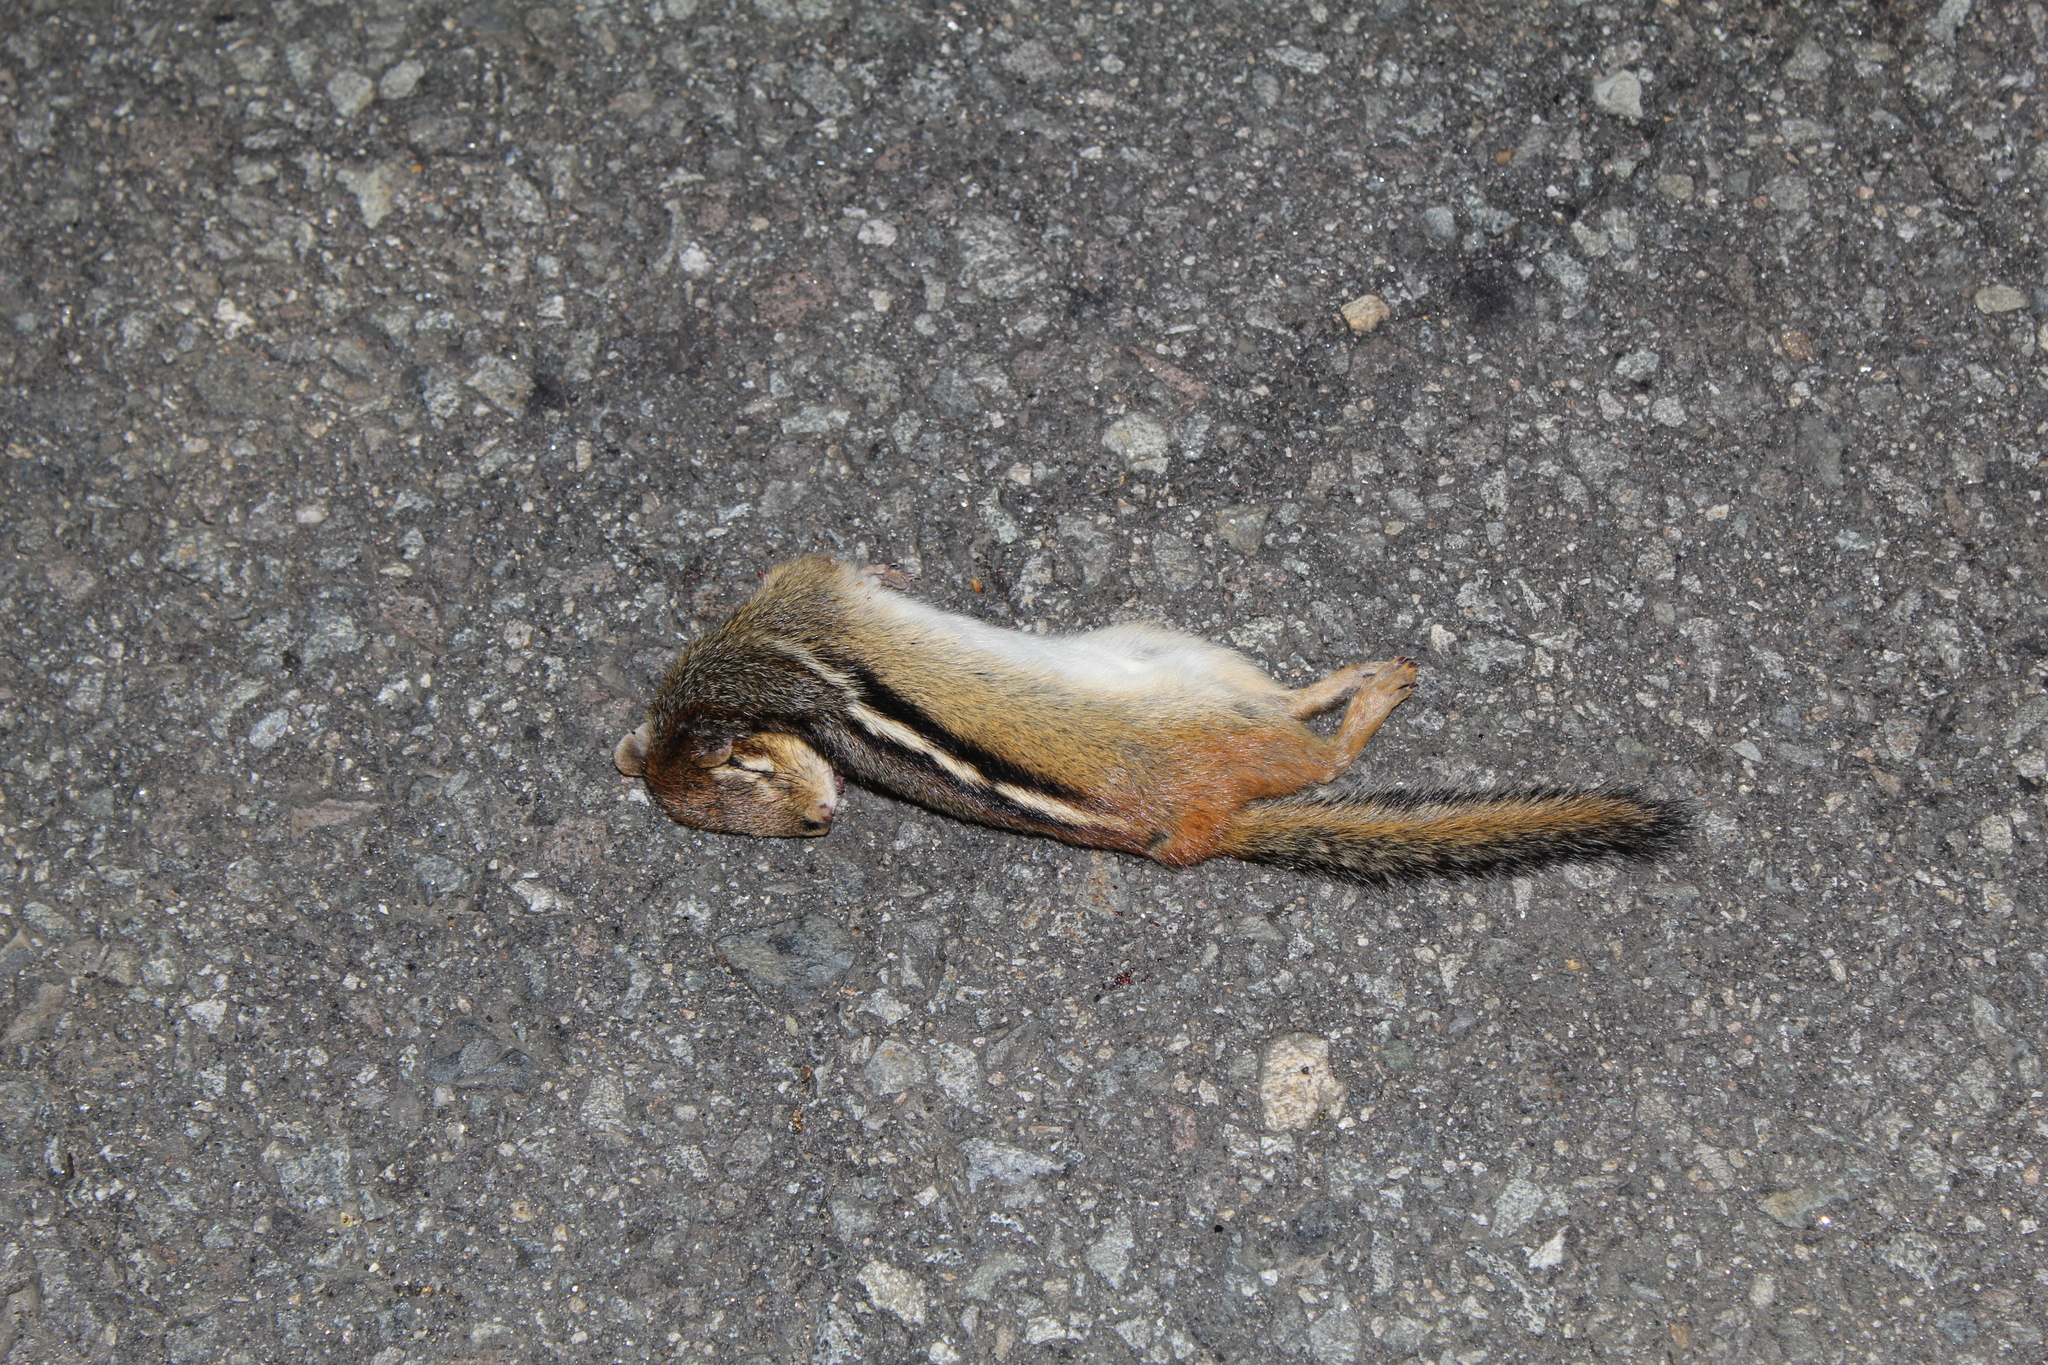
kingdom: Animalia
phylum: Chordata
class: Mammalia
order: Rodentia
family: Sciuridae
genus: Tamias
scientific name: Tamias striatus
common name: Eastern chipmunk
